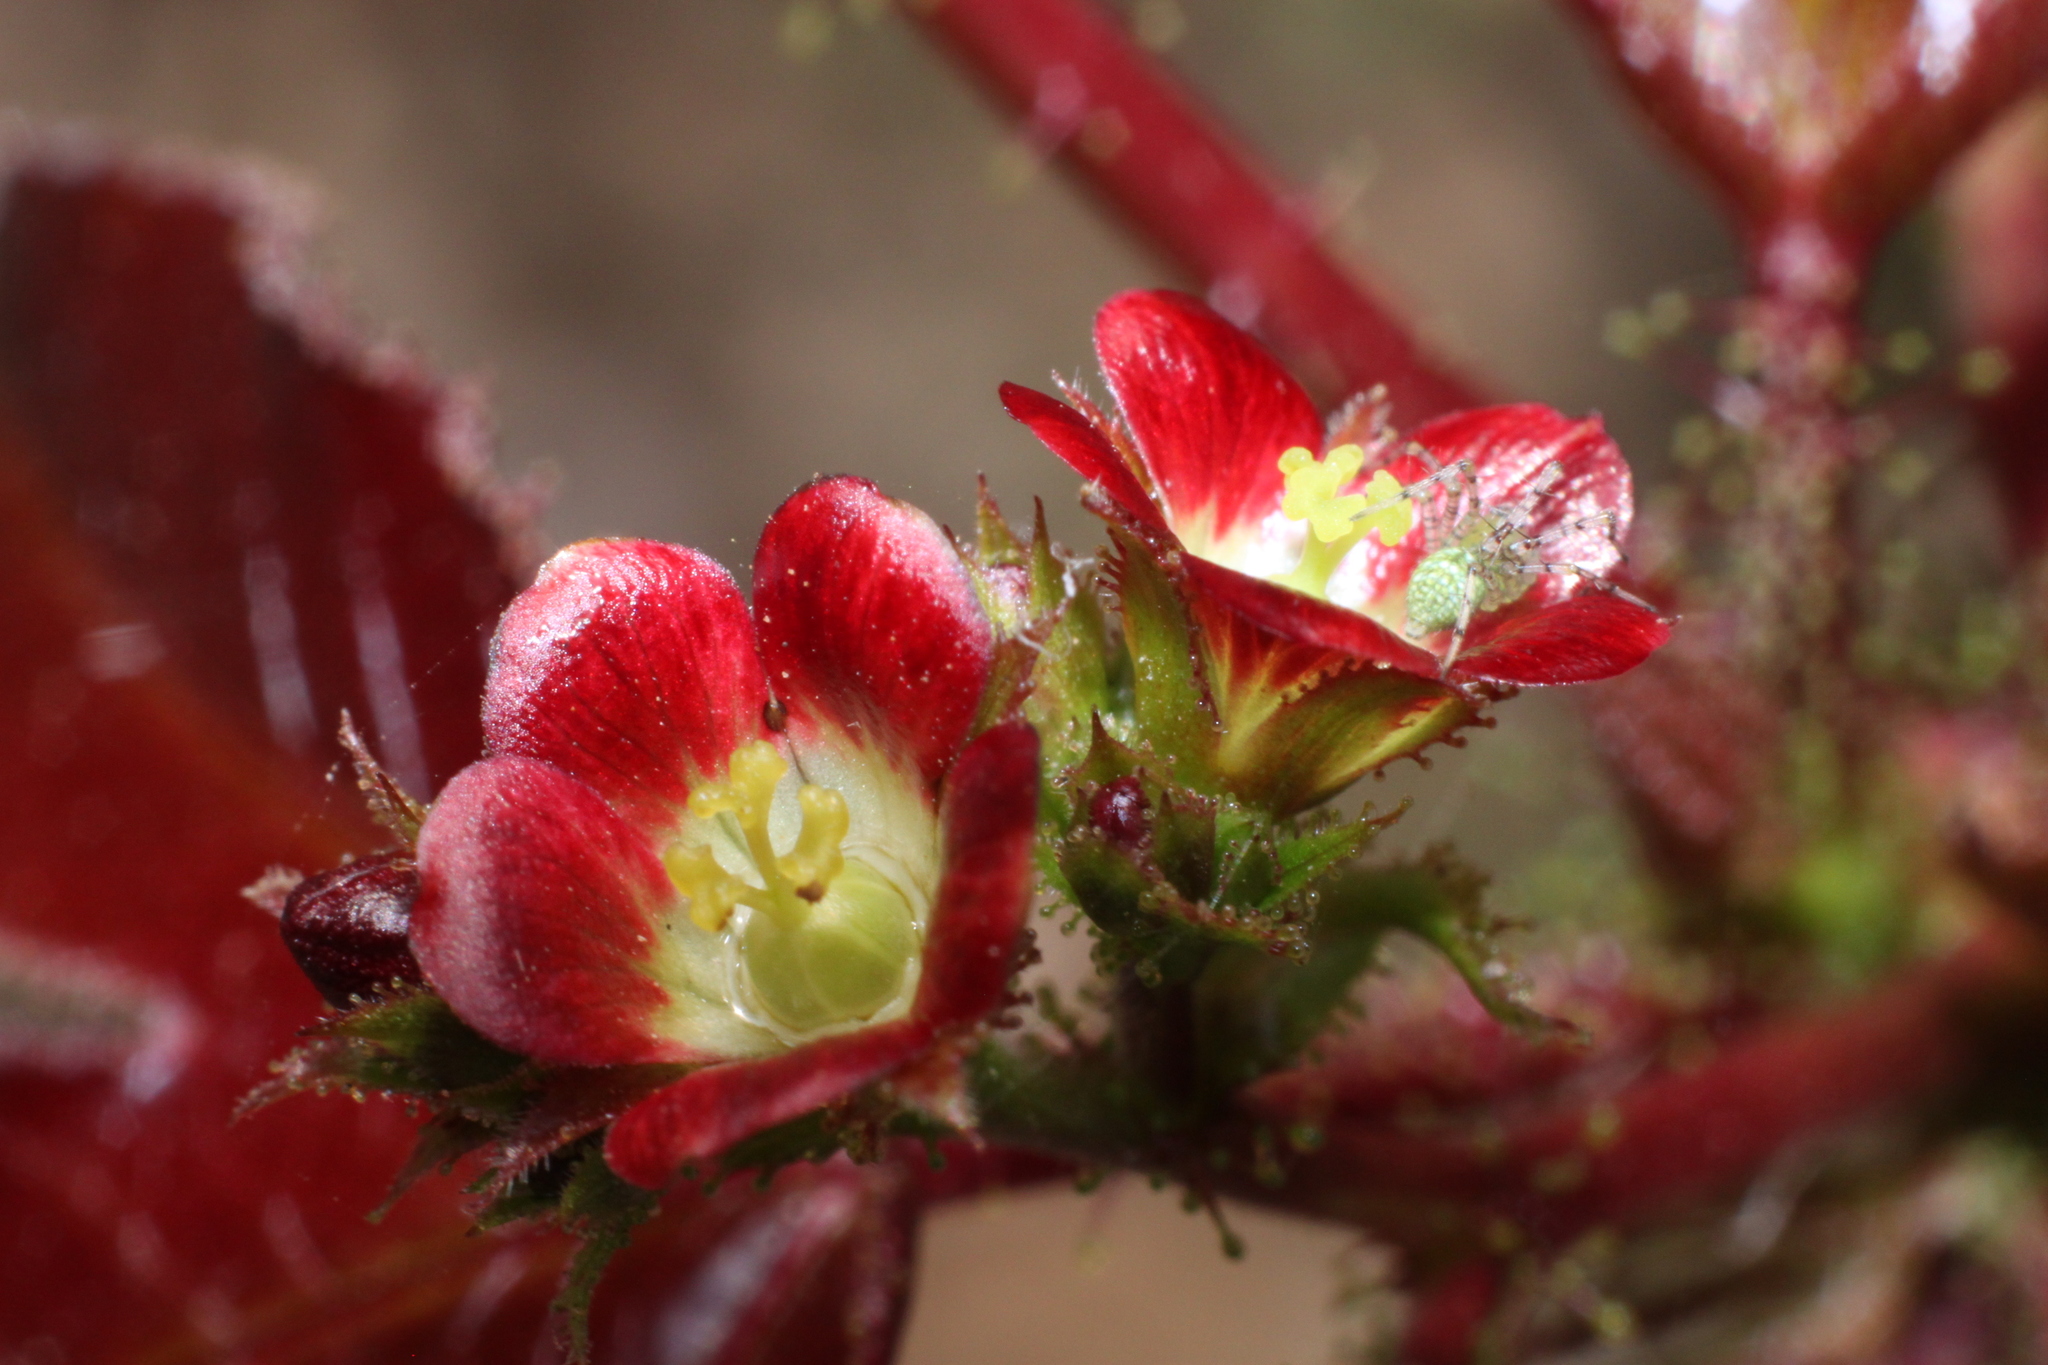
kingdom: Plantae
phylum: Tracheophyta
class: Magnoliopsida
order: Malpighiales
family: Euphorbiaceae
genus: Jatropha
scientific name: Jatropha gossypiifolia
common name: Bellyache bush
